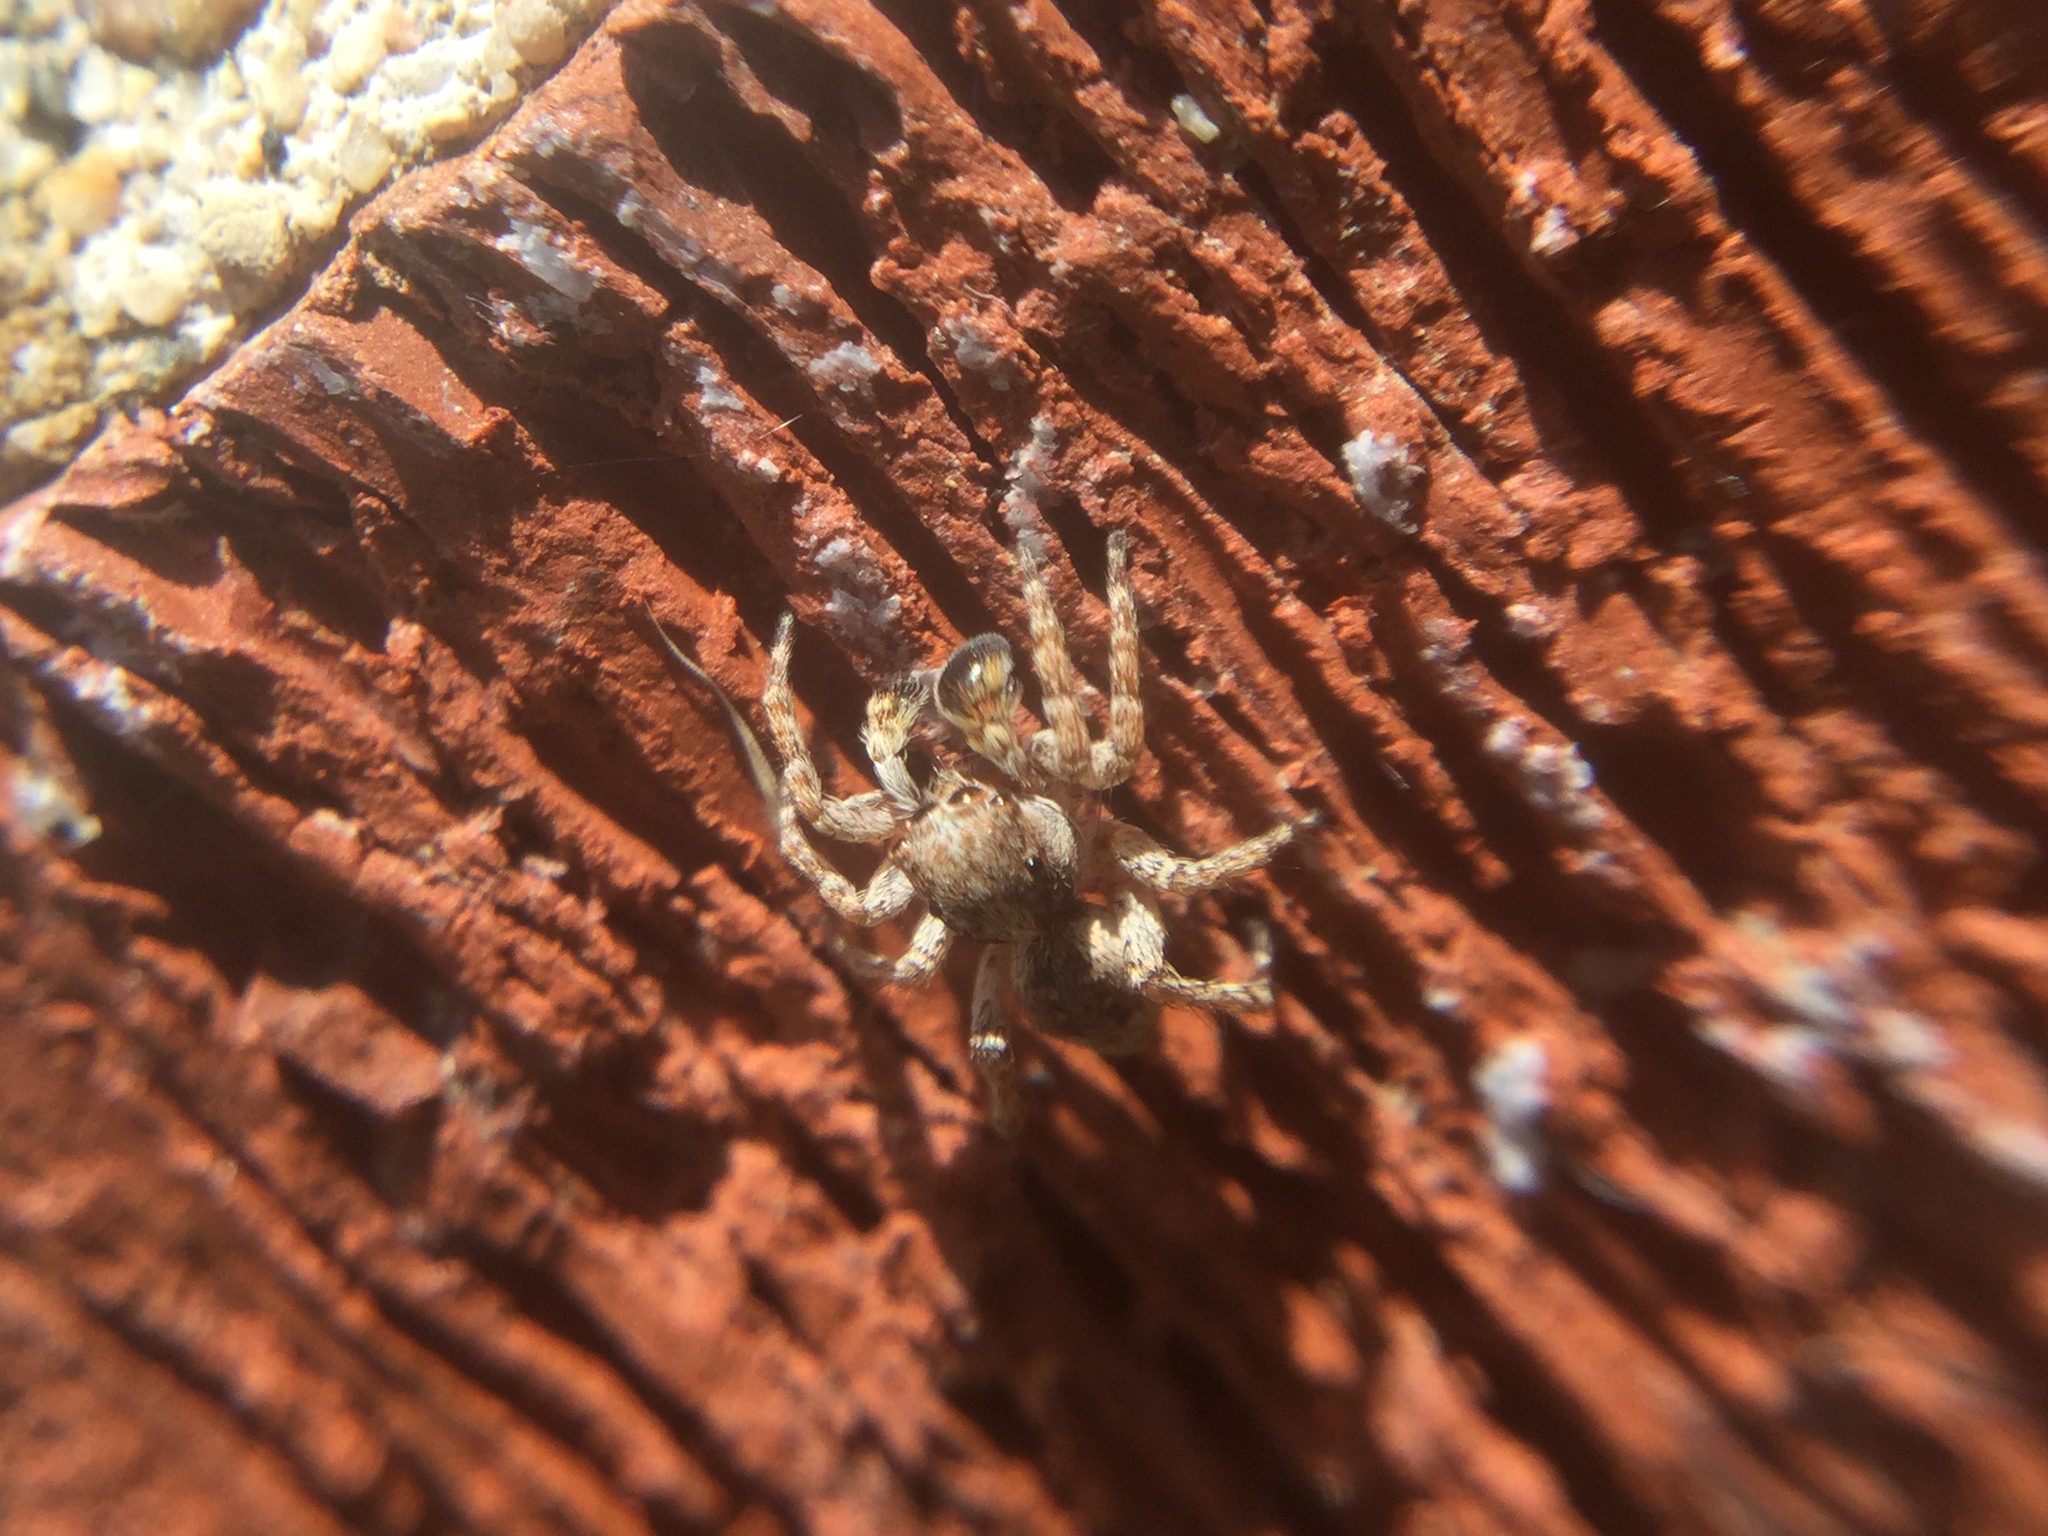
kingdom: Animalia
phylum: Arthropoda
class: Arachnida
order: Araneae
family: Salticidae
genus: Attulus
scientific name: Attulus fasciger
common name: Asiatic wall jumping spider
